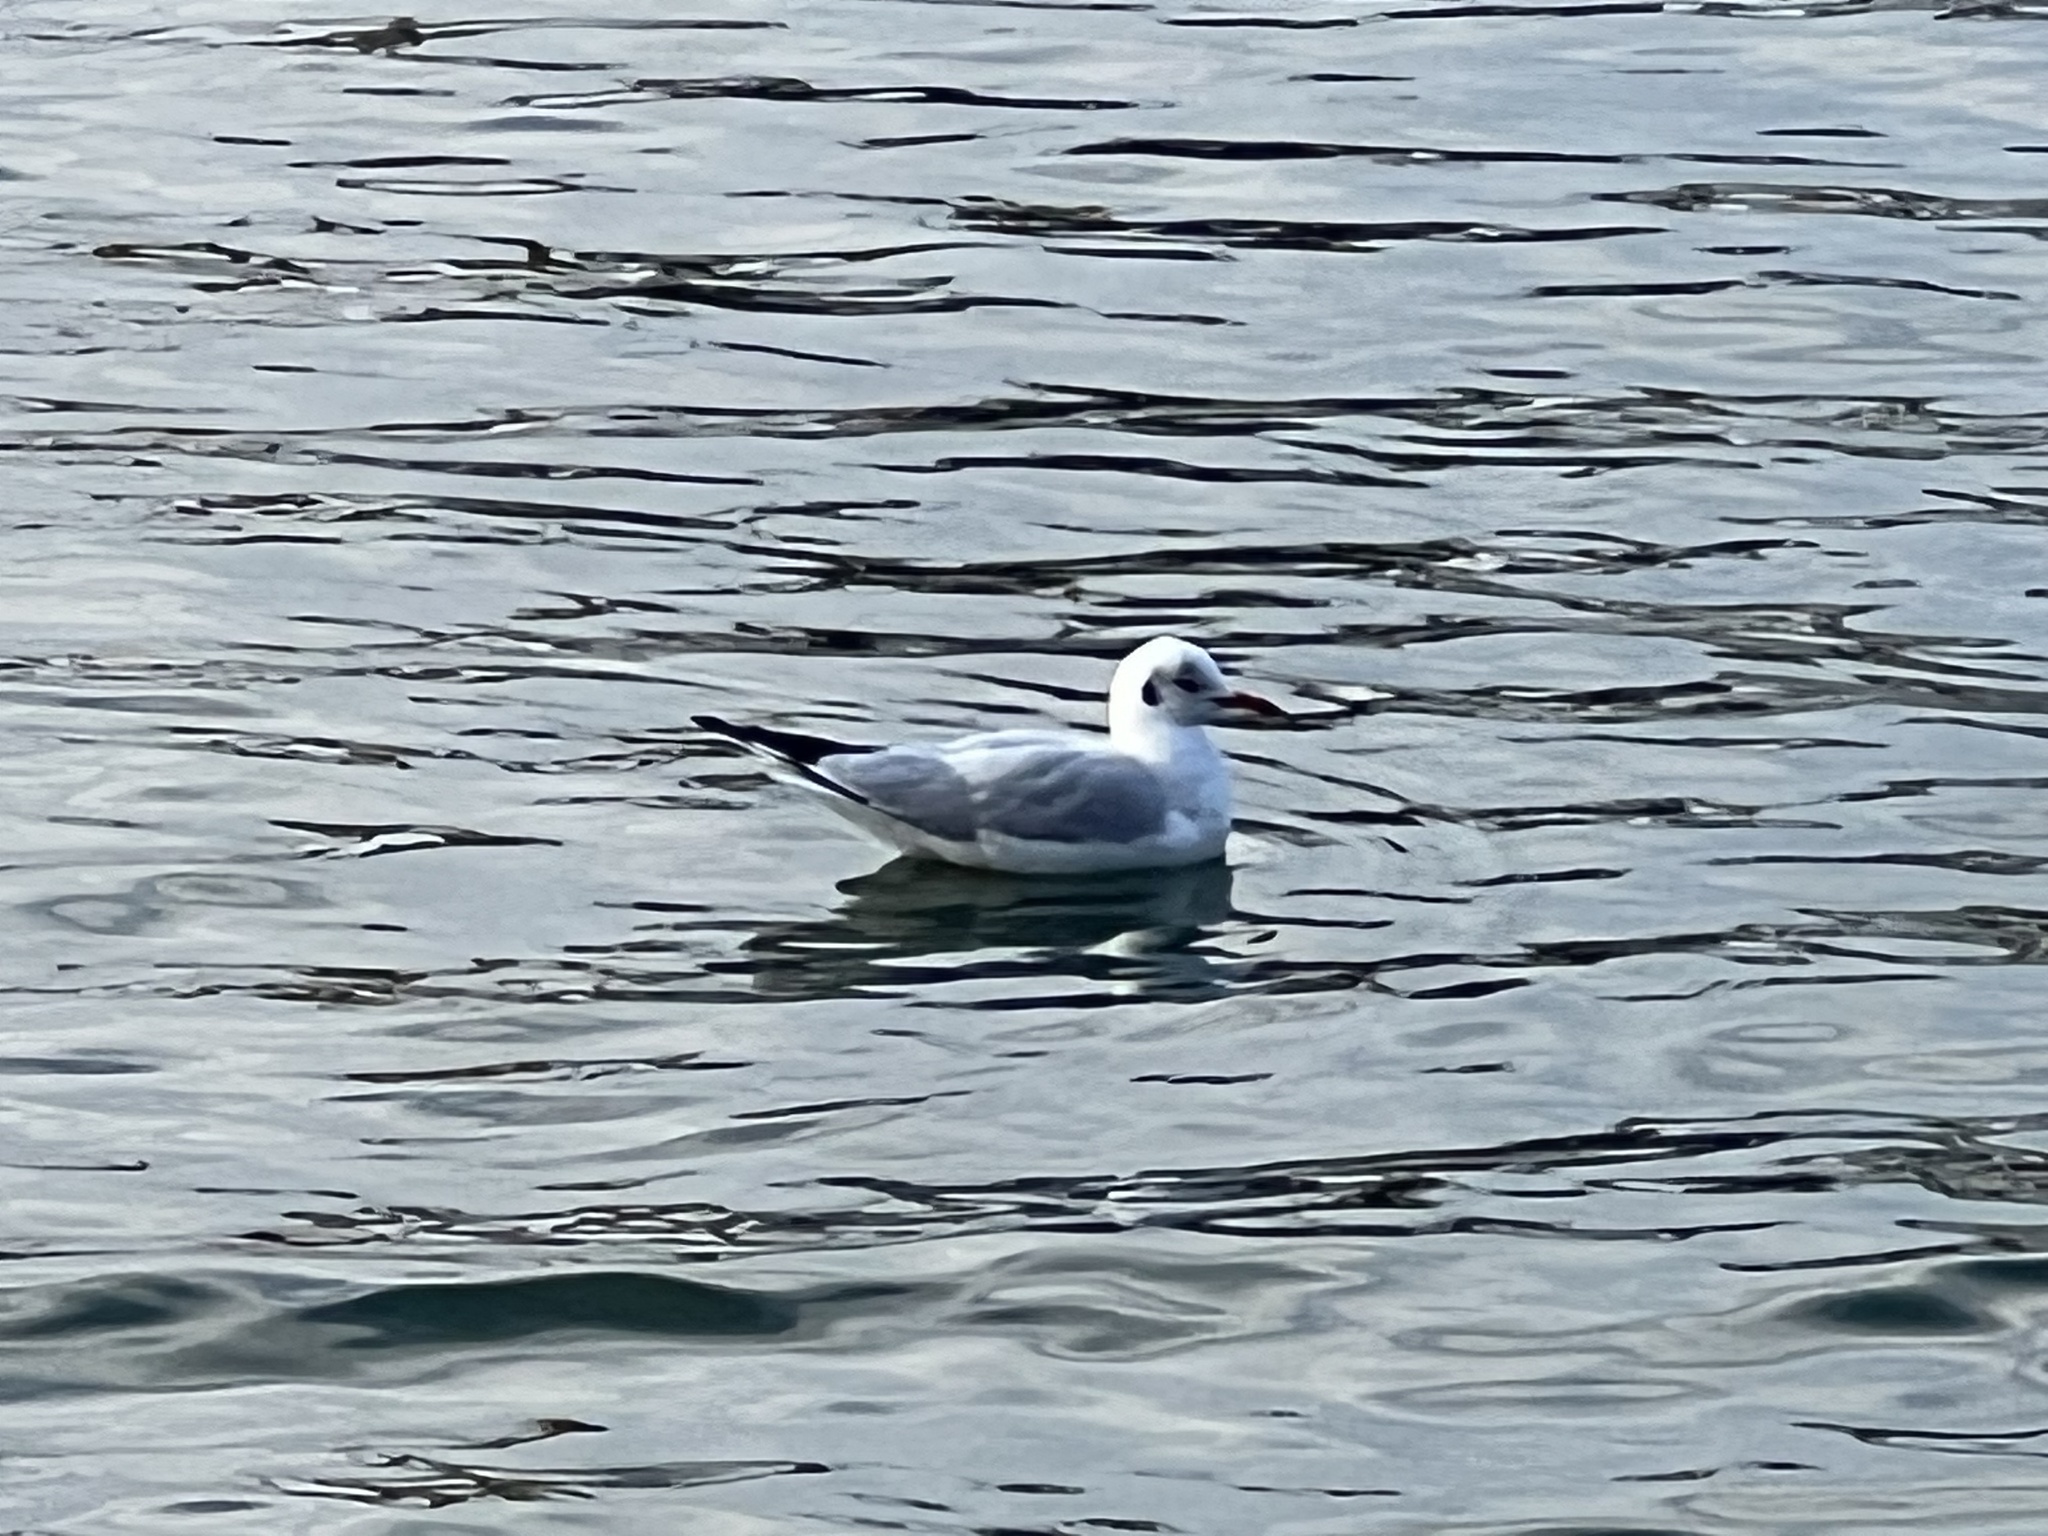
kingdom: Animalia
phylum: Chordata
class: Aves
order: Charadriiformes
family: Laridae
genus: Chroicocephalus
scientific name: Chroicocephalus ridibundus
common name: Black-headed gull
